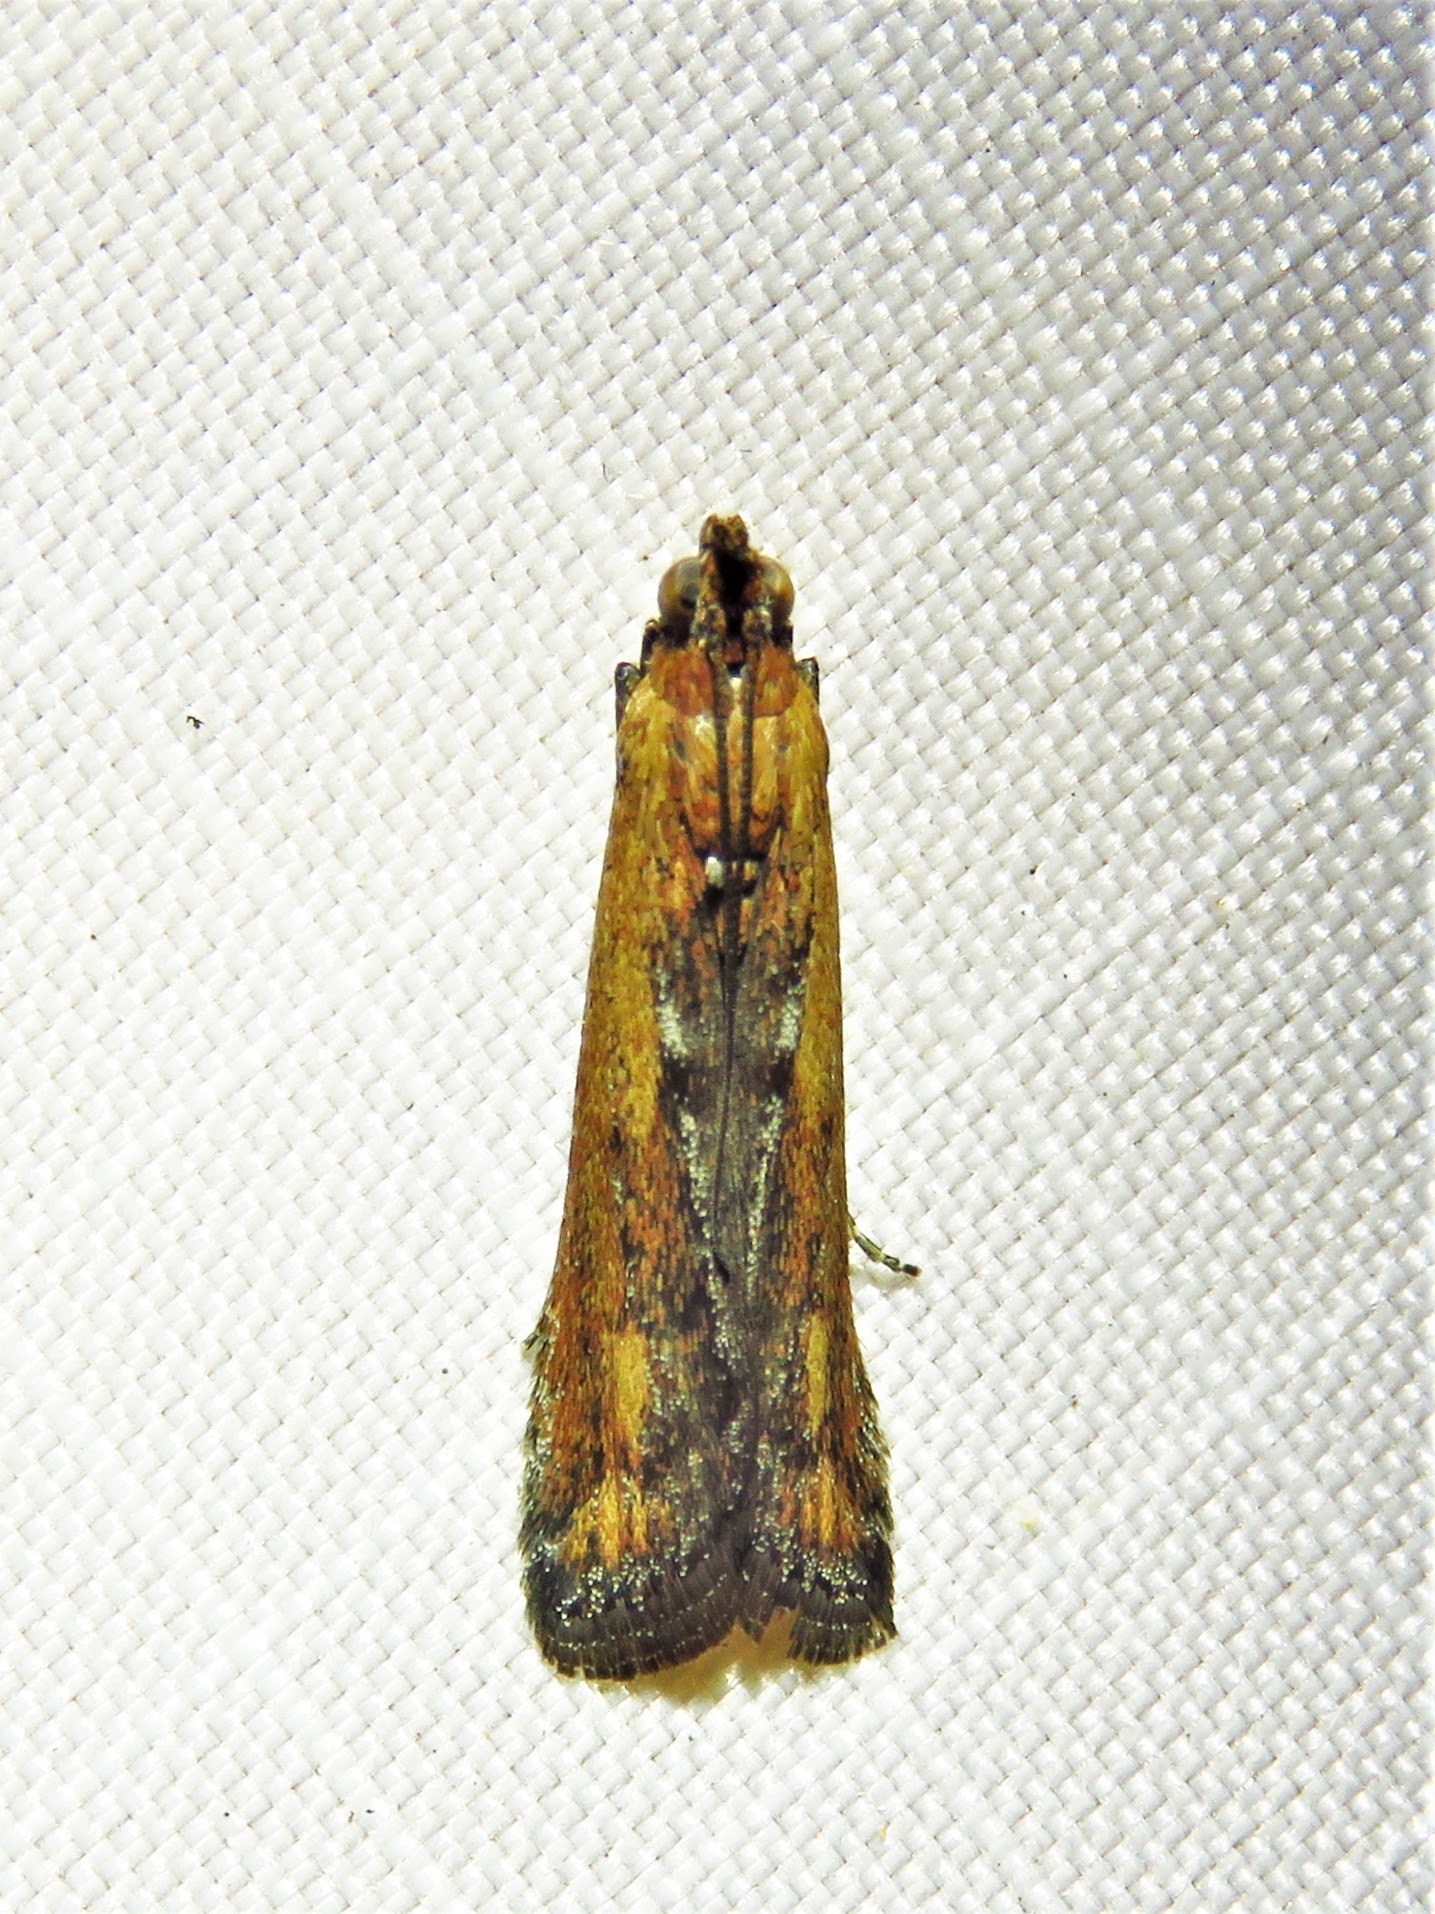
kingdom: Animalia
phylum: Arthropoda
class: Insecta
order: Lepidoptera
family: Pyralidae
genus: Elasmopalpus
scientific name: Elasmopalpus lignosella
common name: Lesser cornstalk borer
